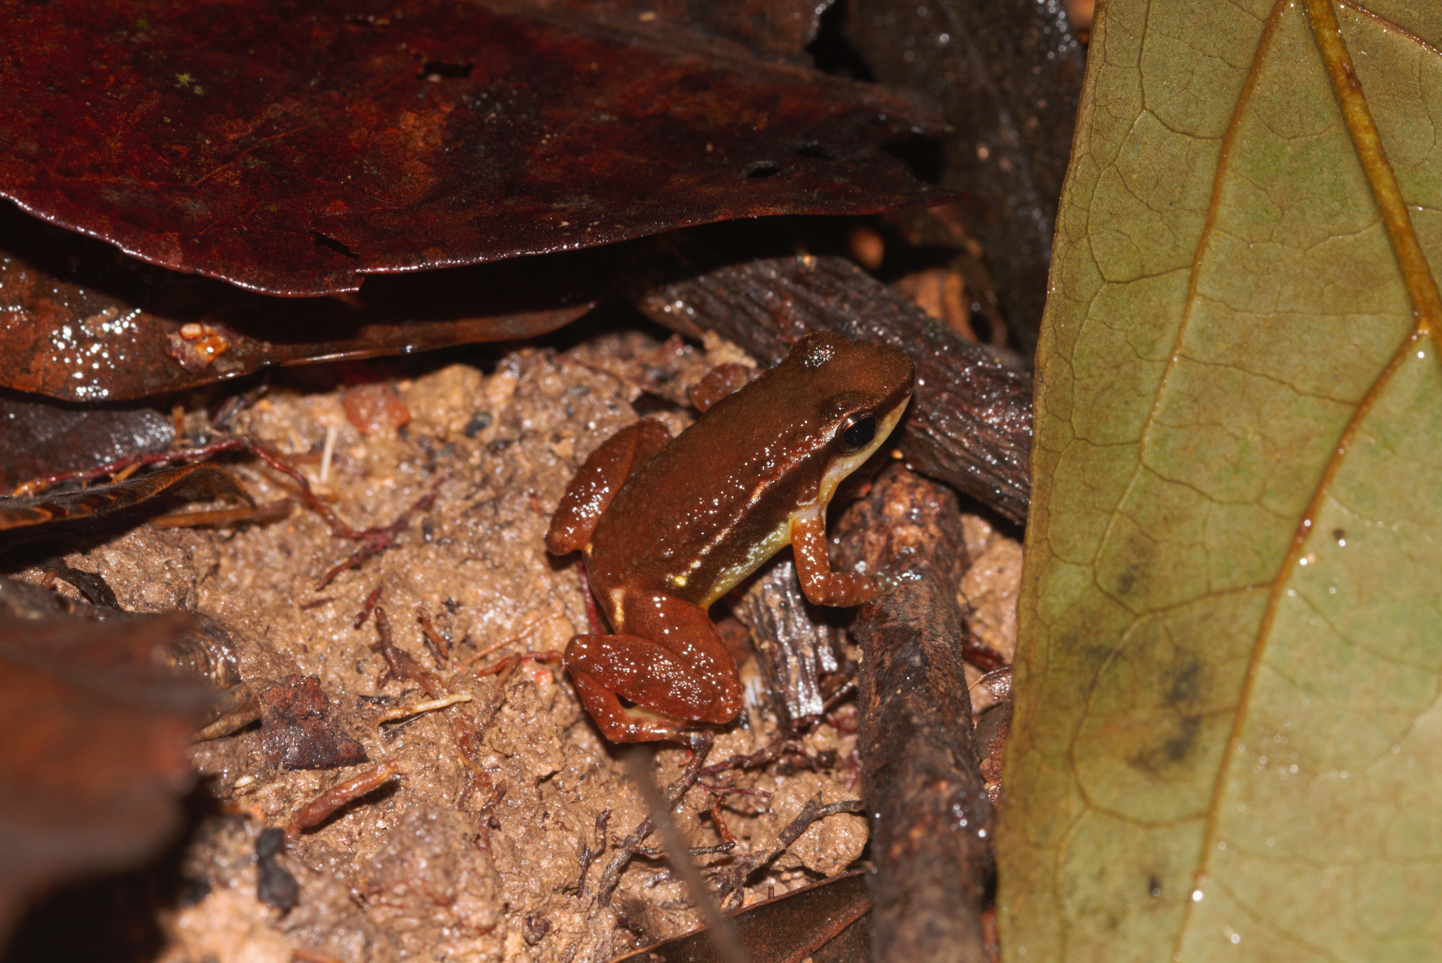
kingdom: Animalia
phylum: Chordata
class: Amphibia
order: Anura
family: Aromobatidae
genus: Anomaloglossus
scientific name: Anomaloglossus baeobatrachus
